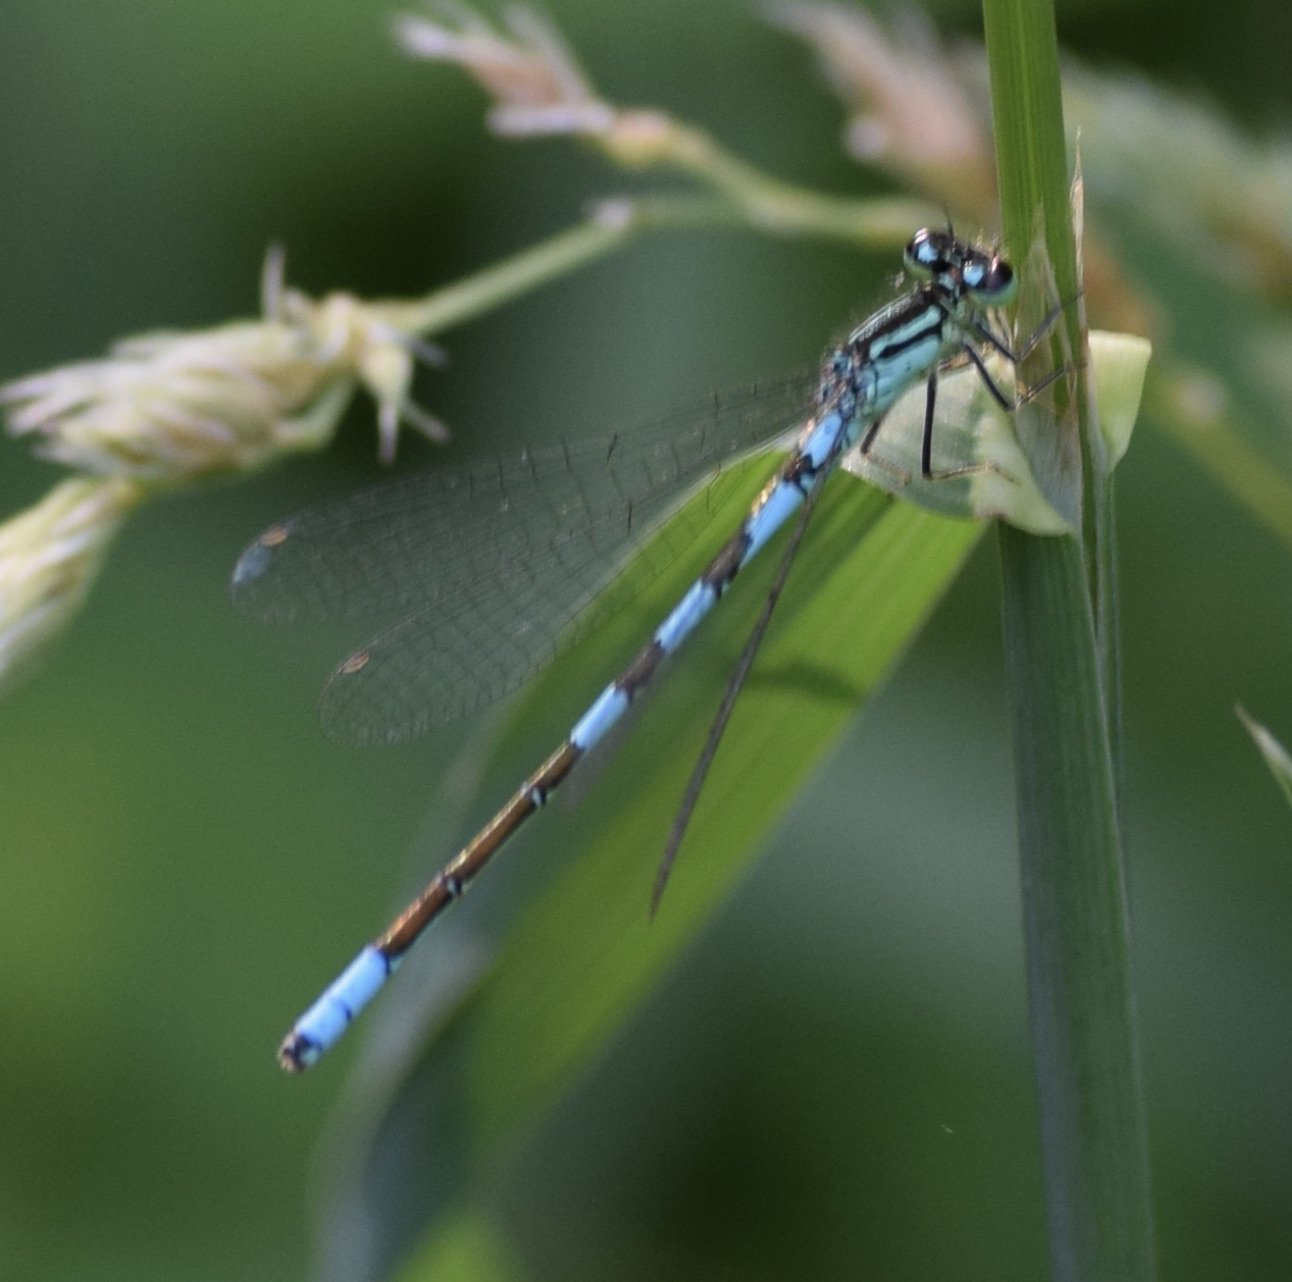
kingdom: Animalia
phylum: Arthropoda
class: Insecta
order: Odonata
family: Coenagrionidae
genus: Coenagrion
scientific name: Coenagrion resolutum
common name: Taiga bluet
